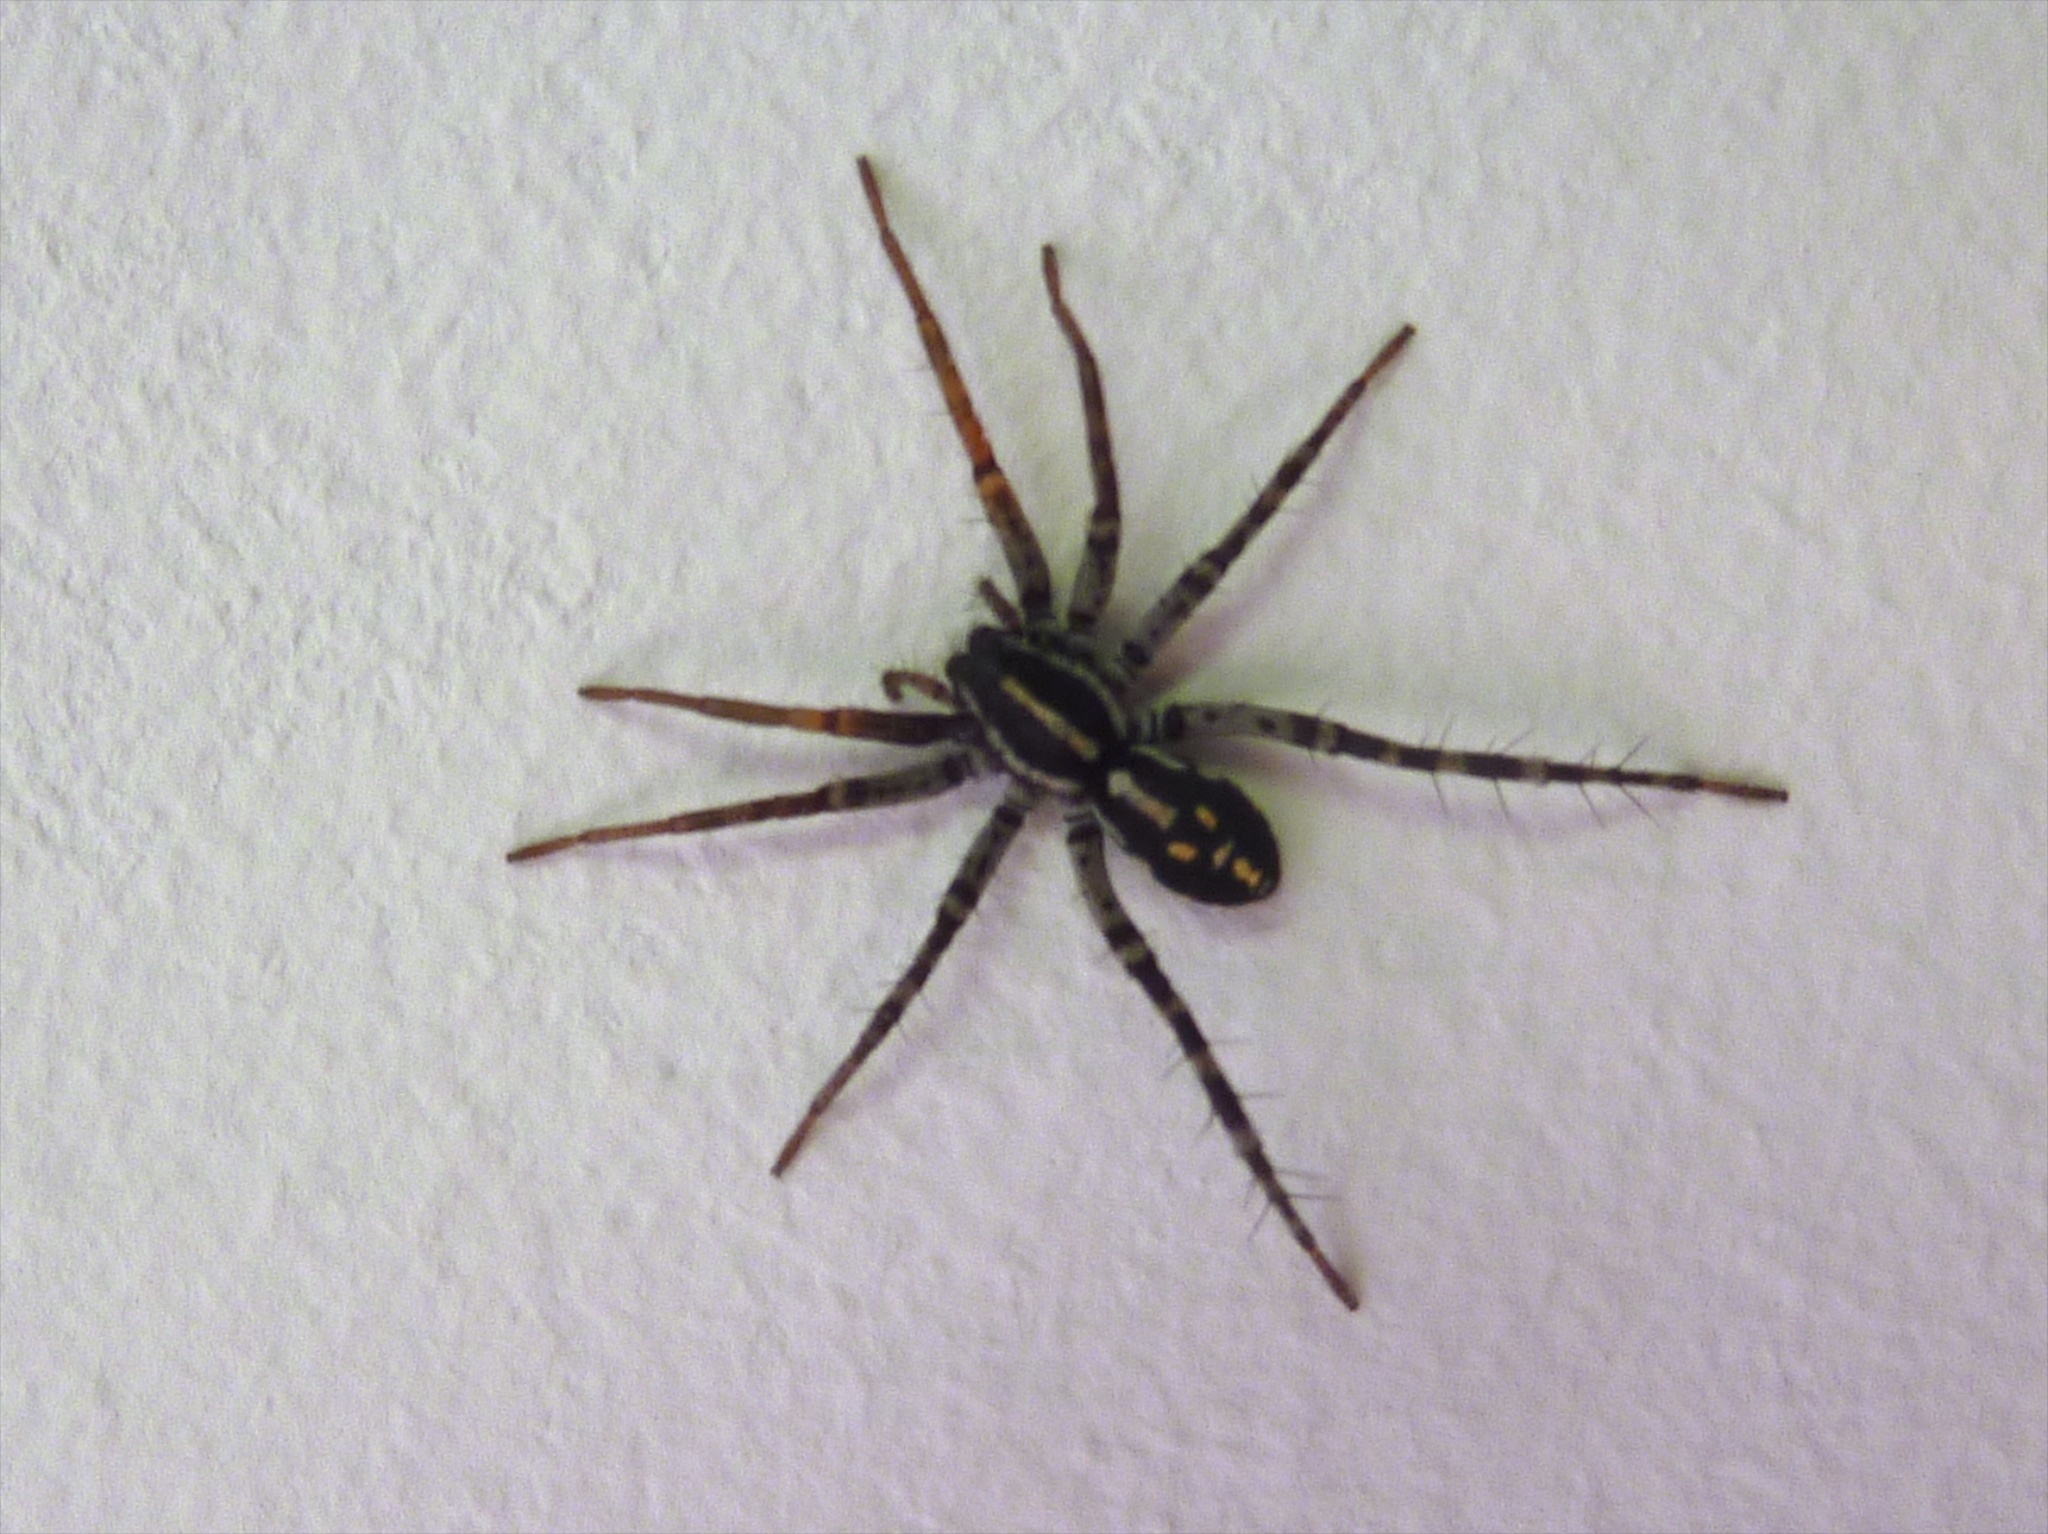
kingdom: Animalia
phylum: Arthropoda
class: Arachnida
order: Araneae
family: Corinnidae
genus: Nyssus
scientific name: Nyssus coloripes
